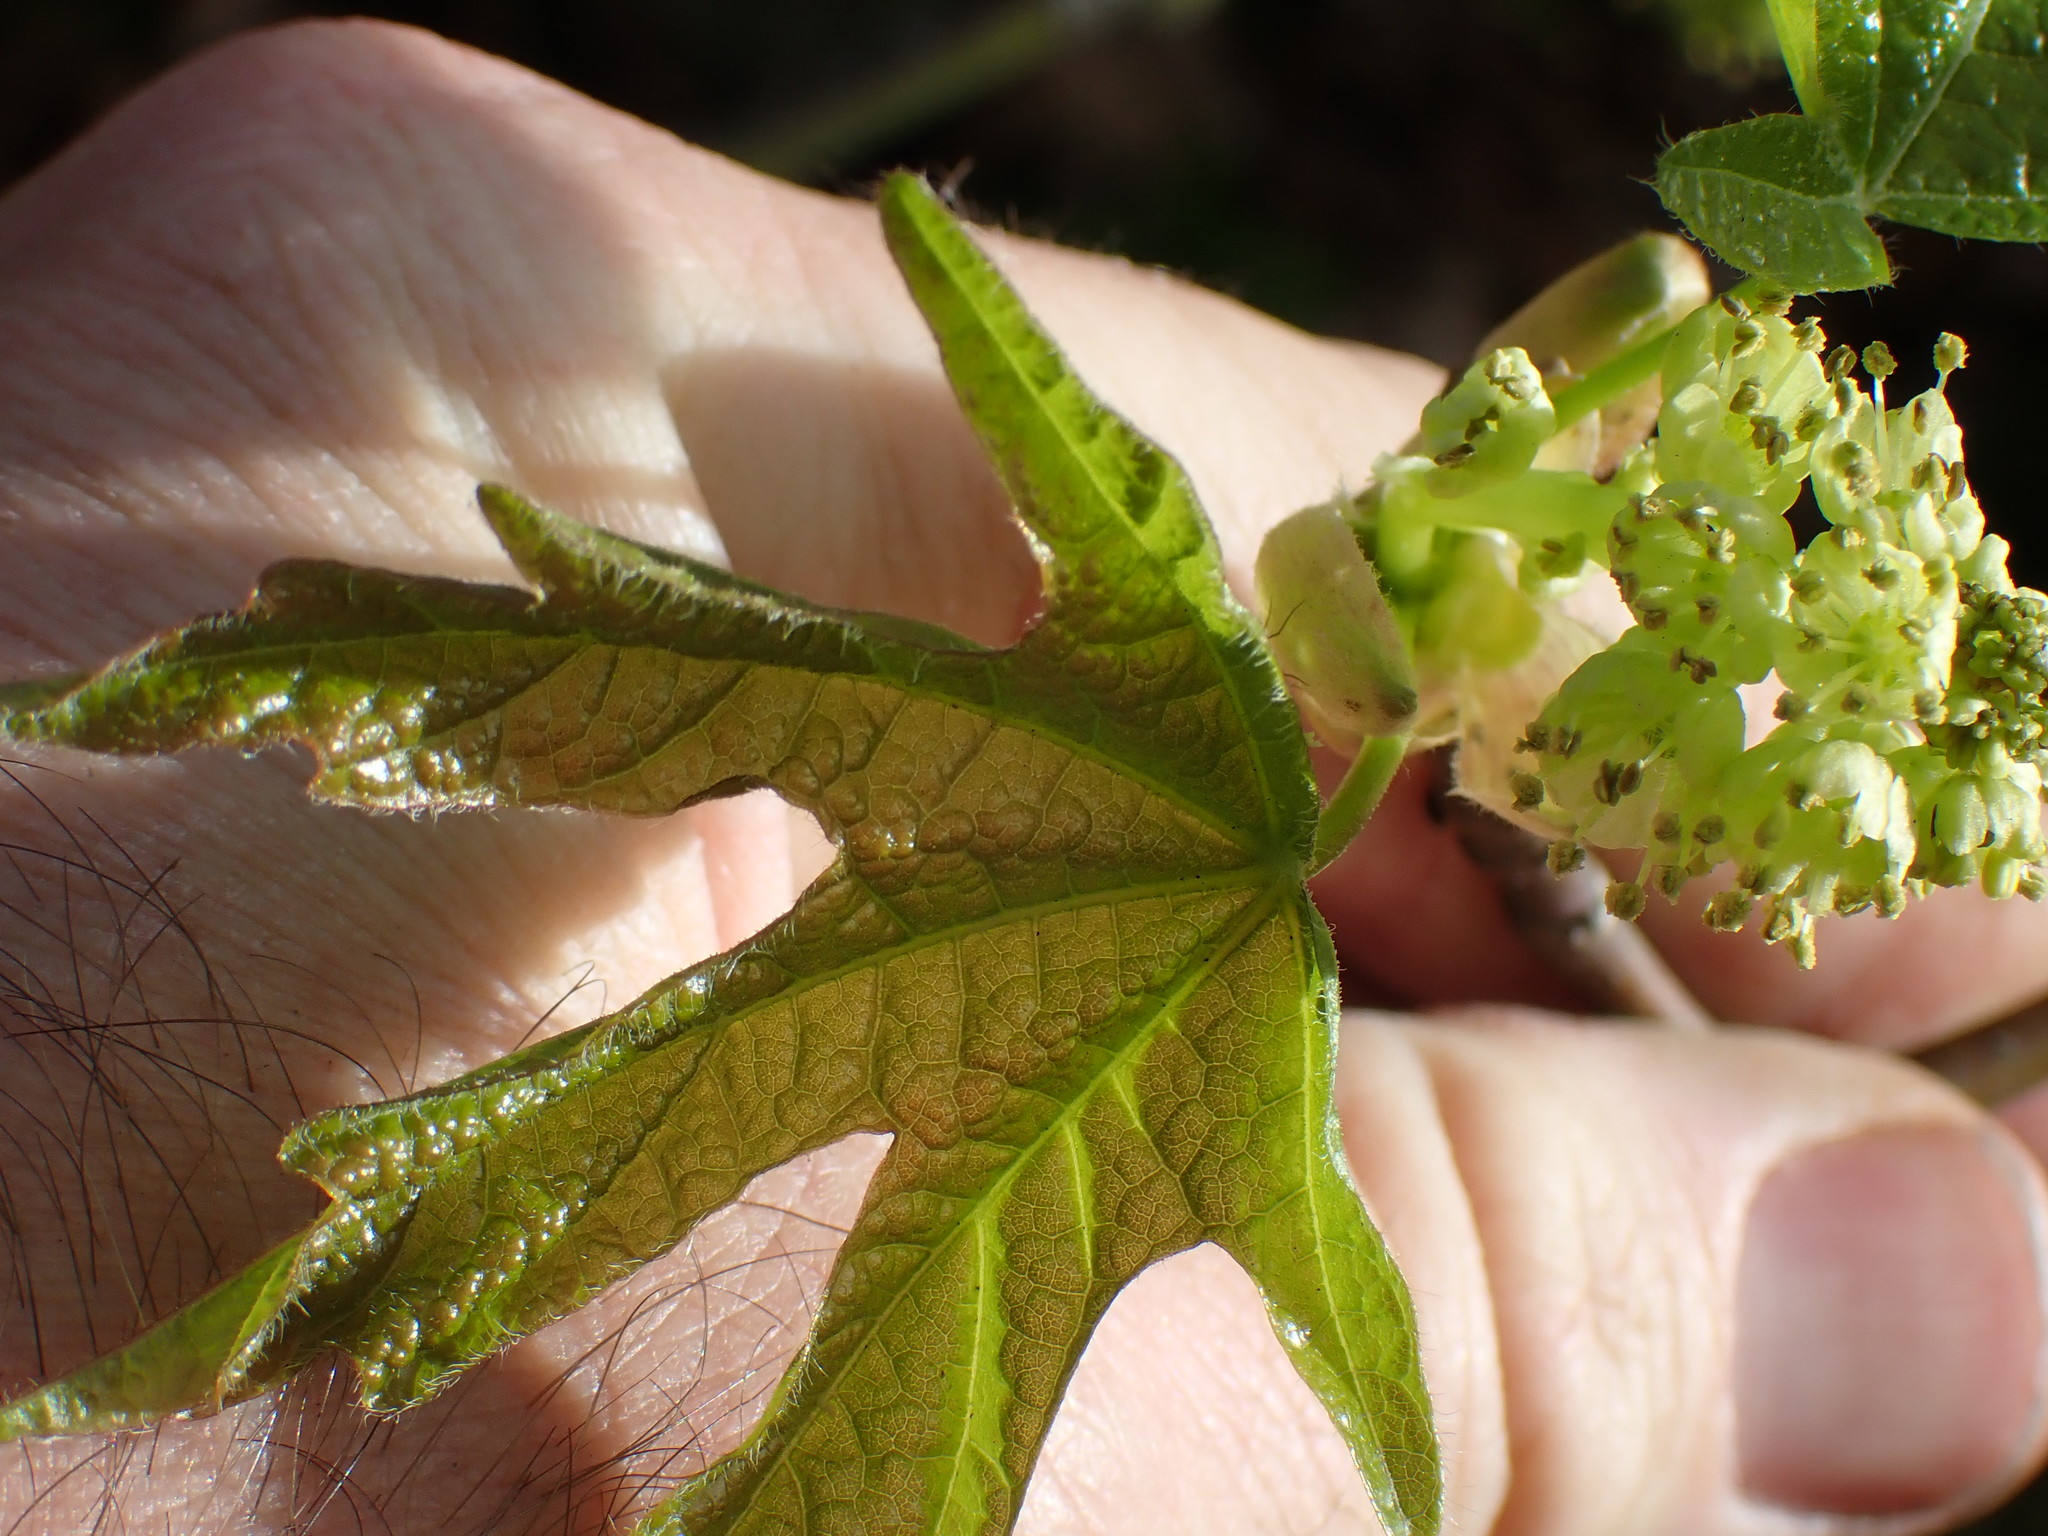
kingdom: Plantae
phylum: Tracheophyta
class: Magnoliopsida
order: Sapindales
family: Sapindaceae
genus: Acer
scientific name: Acer macrophyllum
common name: Oregon maple
